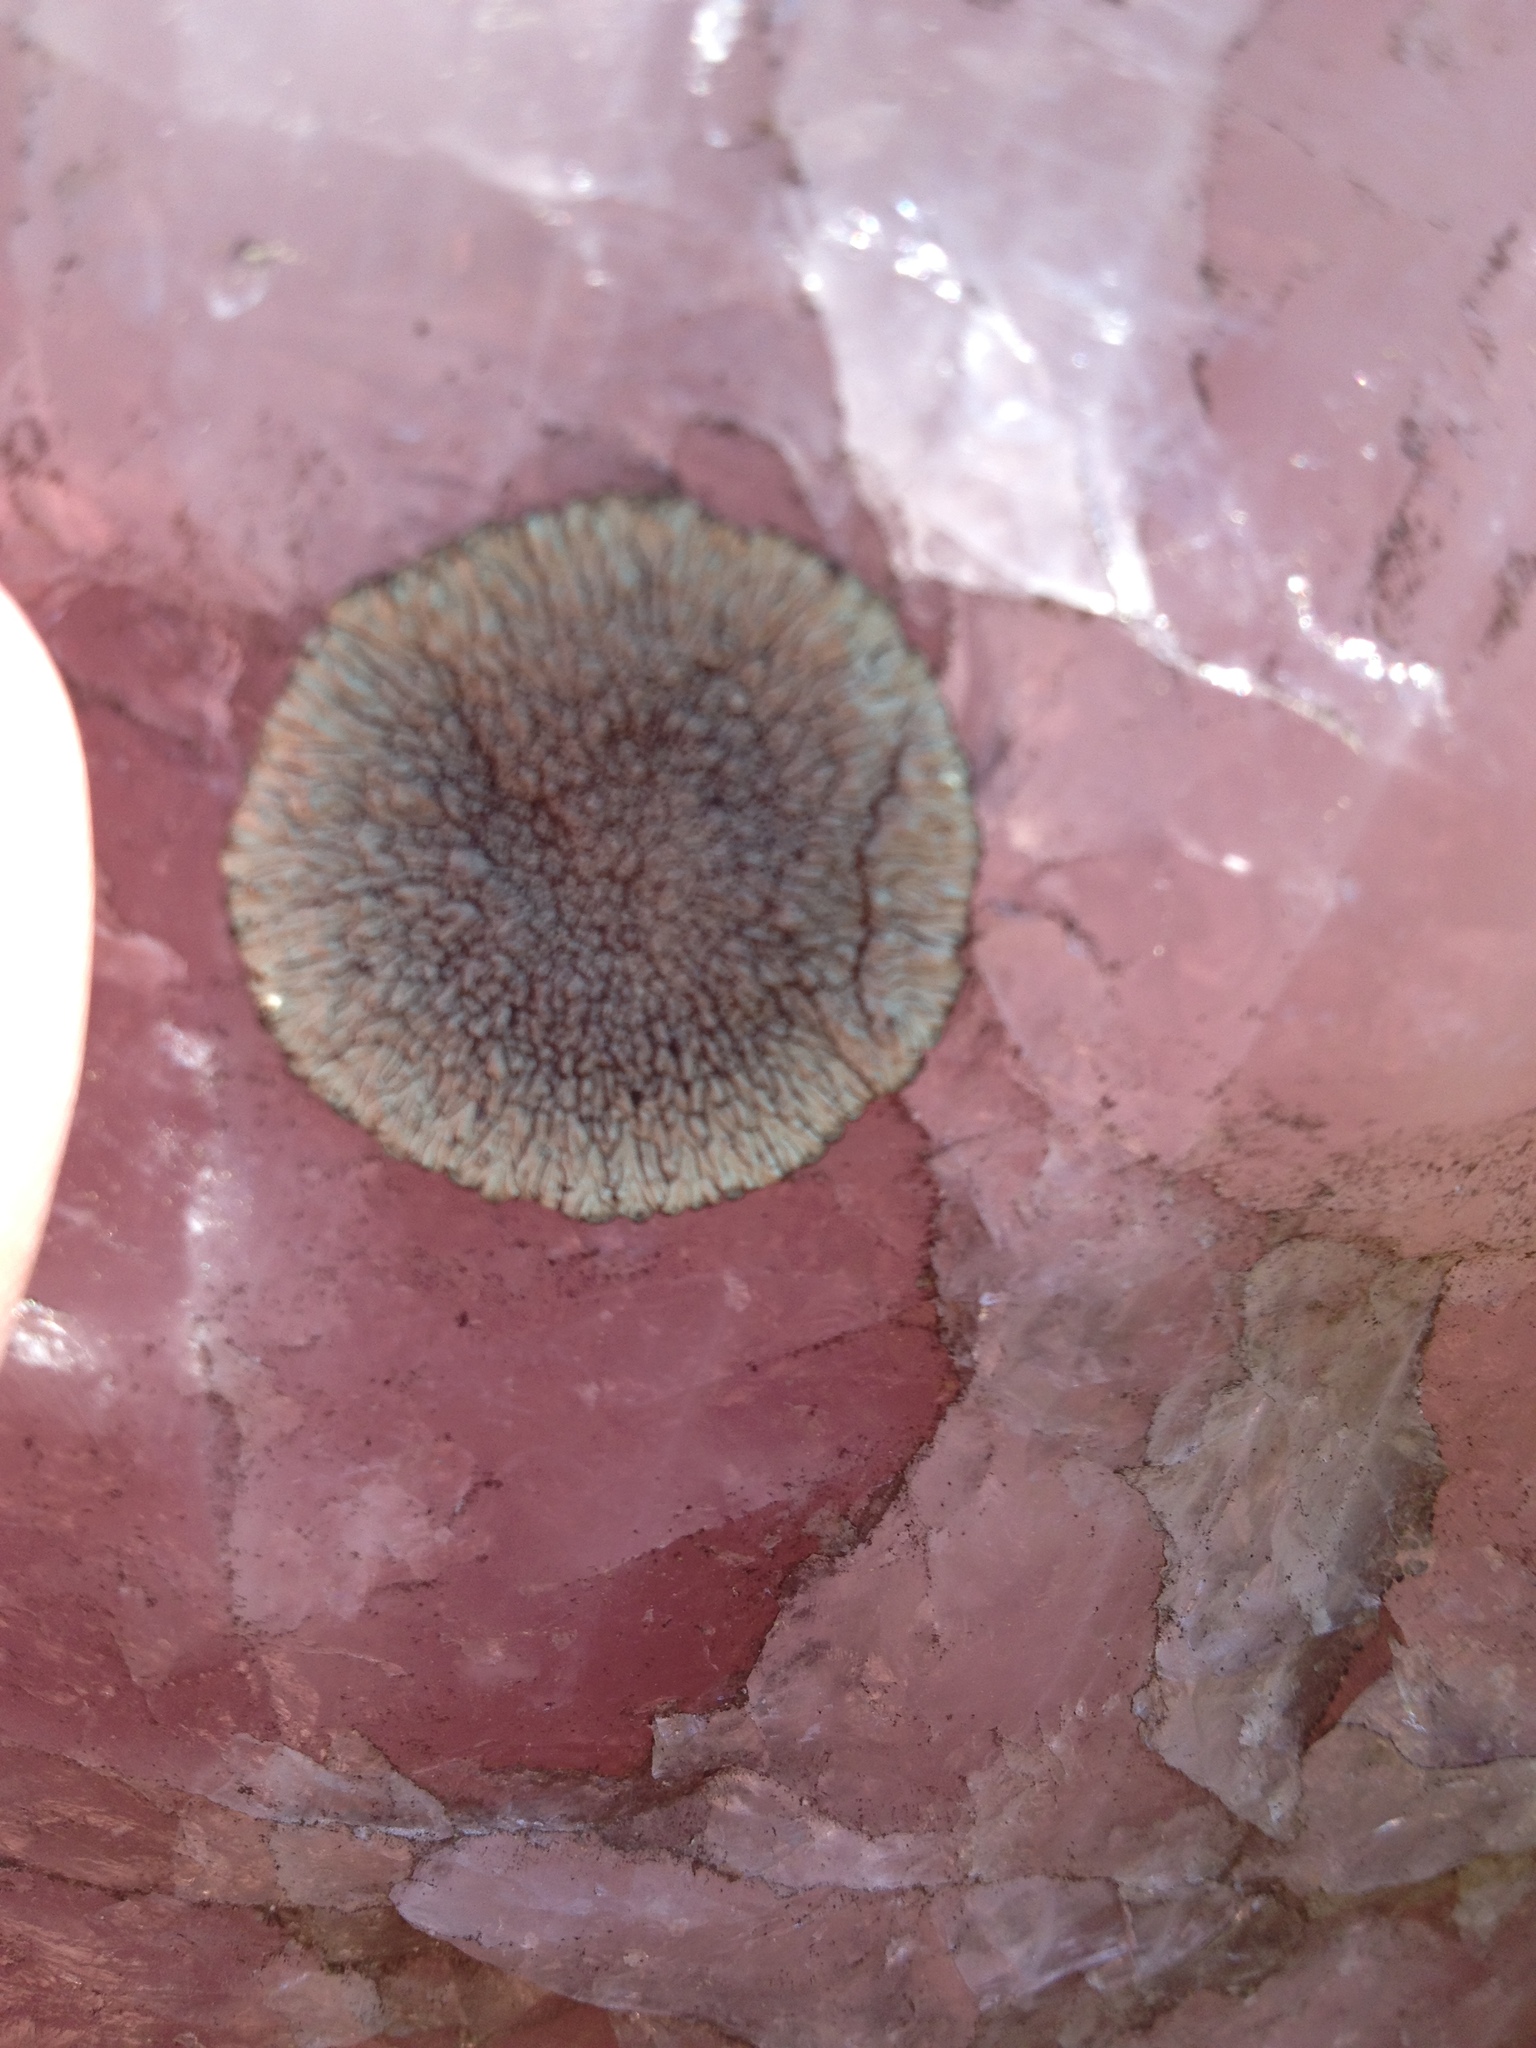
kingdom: Fungi
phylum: Ascomycota
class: Lecanoromycetes
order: Caliciales
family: Caliciaceae
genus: Dimelaena
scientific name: Dimelaena oreina
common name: Golden moonglow lichen
